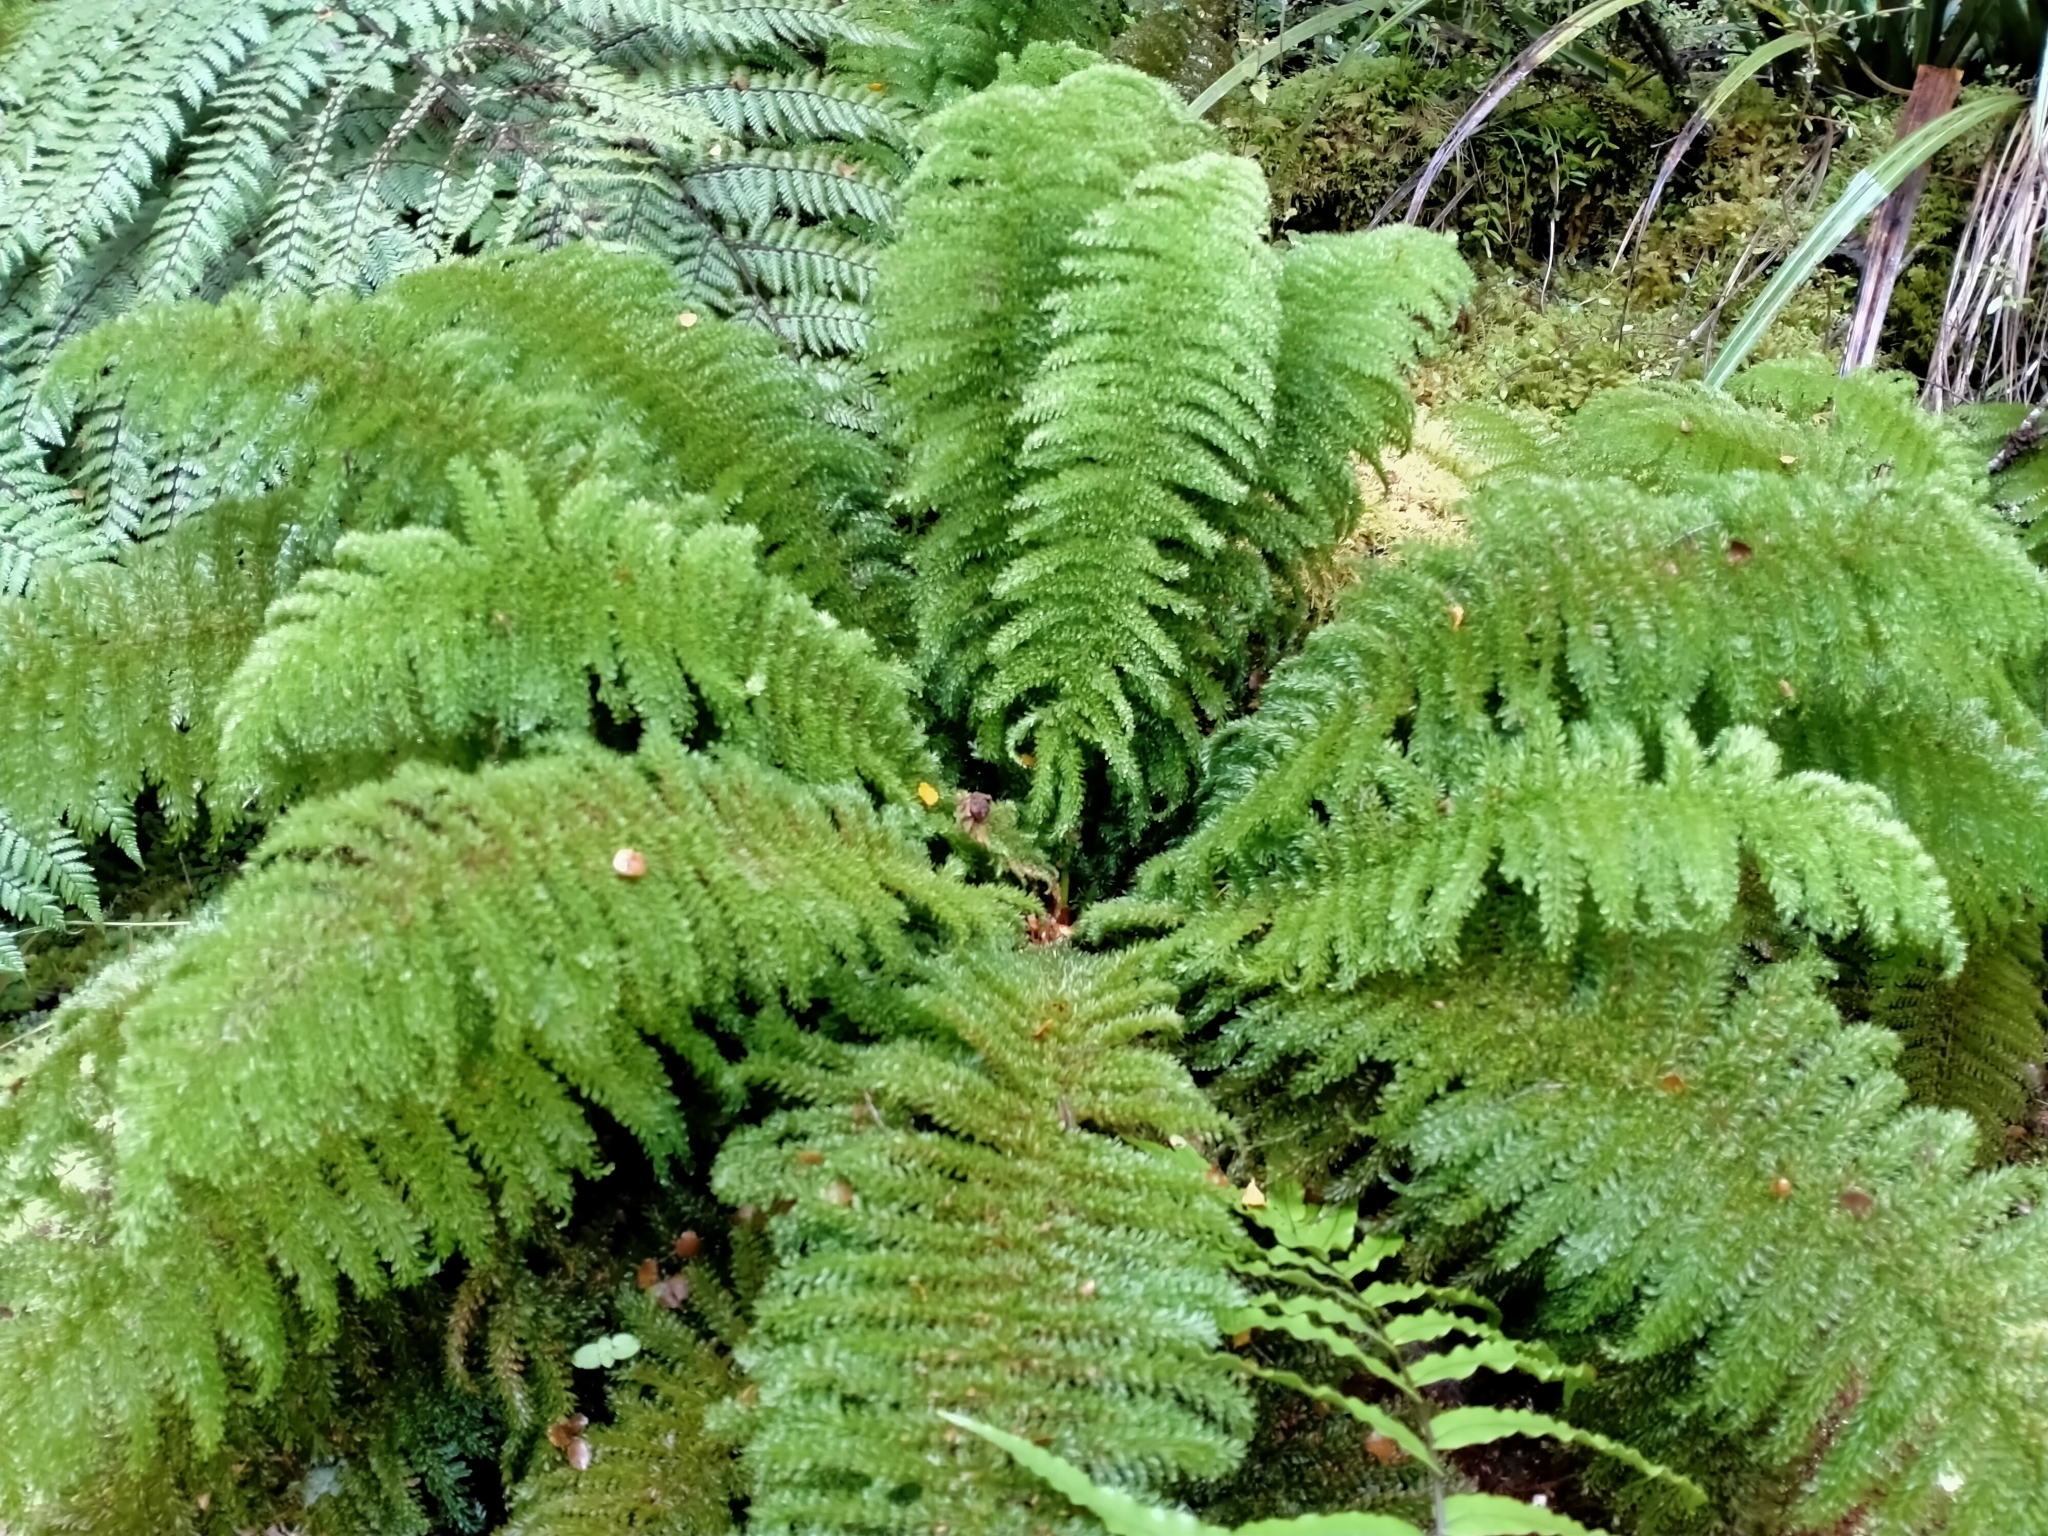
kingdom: Plantae
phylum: Tracheophyta
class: Polypodiopsida
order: Osmundales
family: Osmundaceae
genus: Leptopteris
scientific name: Leptopteris superba
